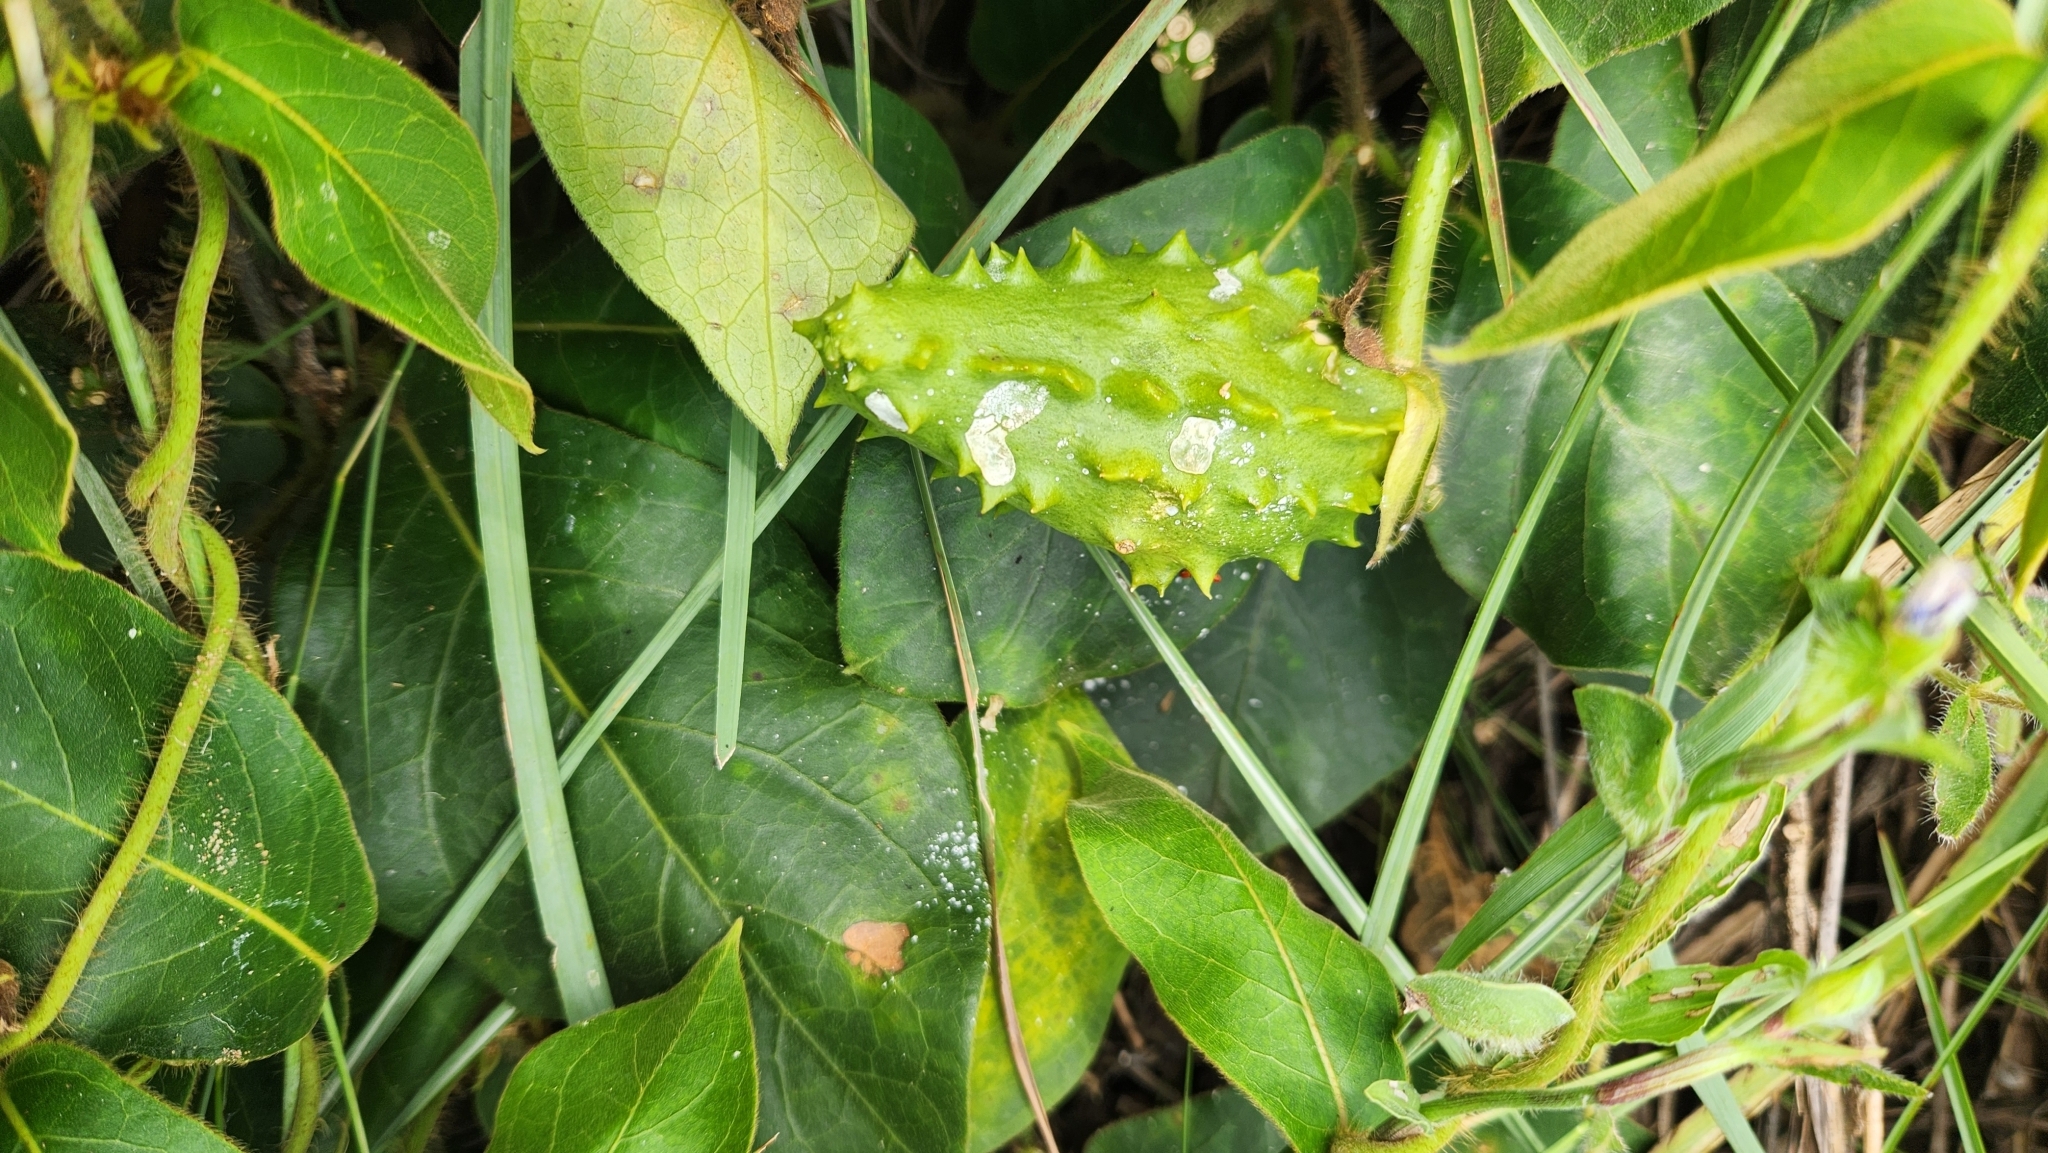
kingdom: Plantae
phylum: Tracheophyta
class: Magnoliopsida
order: Gentianales
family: Apocynaceae
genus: Macroscepis
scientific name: Macroscepis grandiflora
